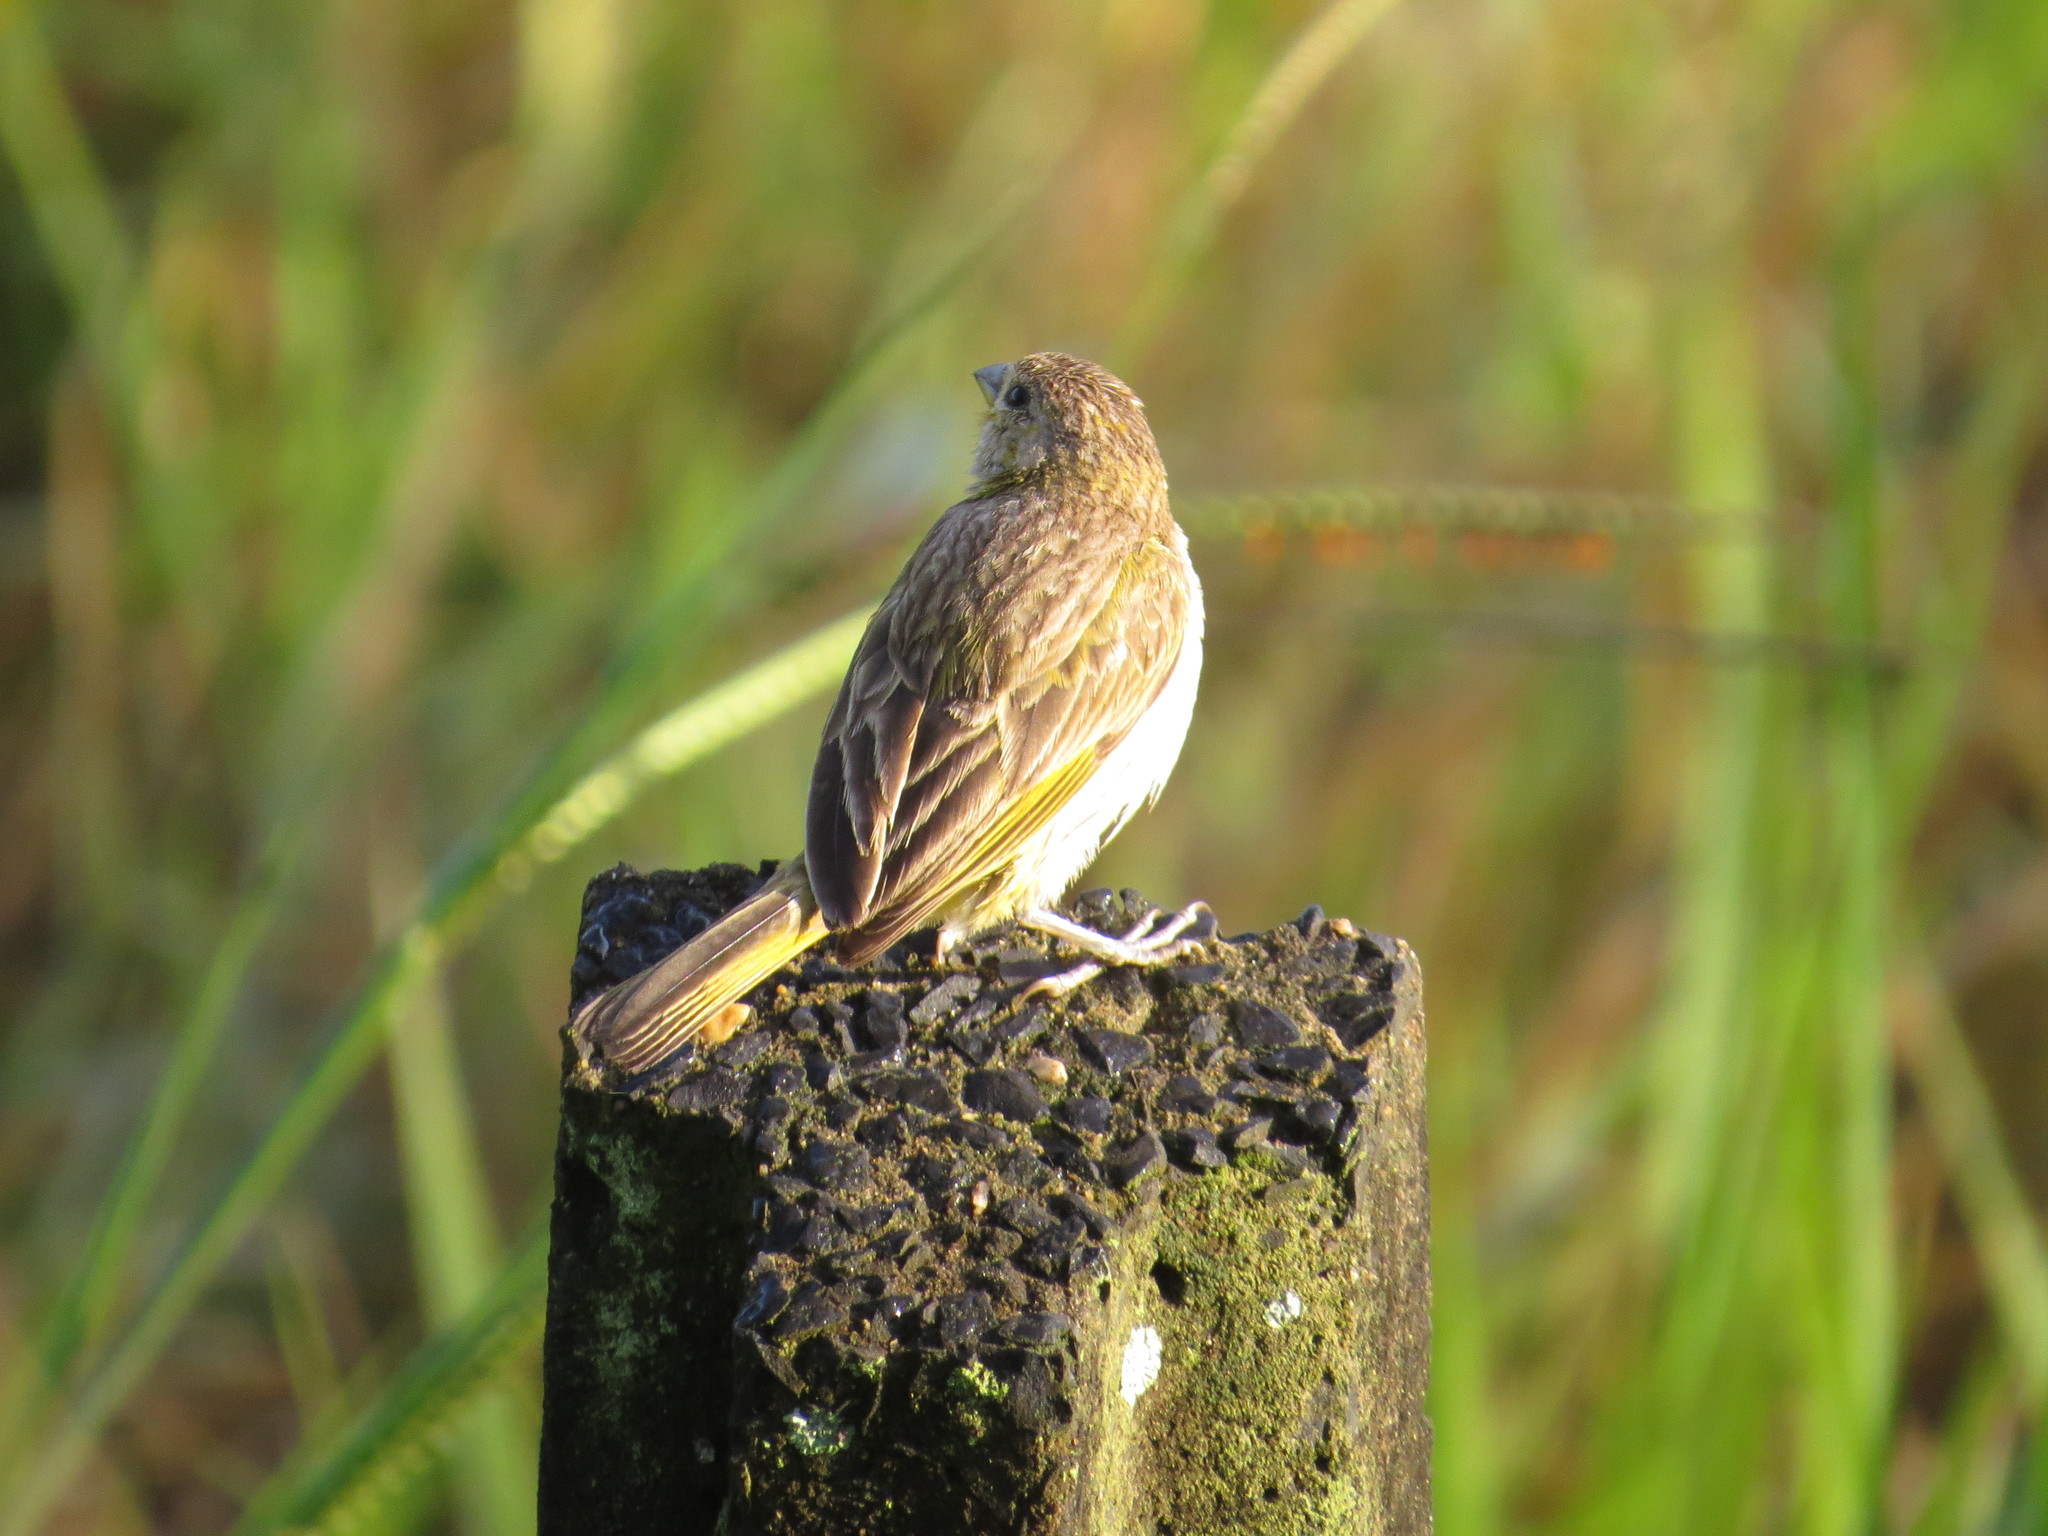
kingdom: Animalia
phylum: Chordata
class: Aves
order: Passeriformes
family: Thraupidae
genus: Sicalis
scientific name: Sicalis flaveola
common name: Saffron finch
